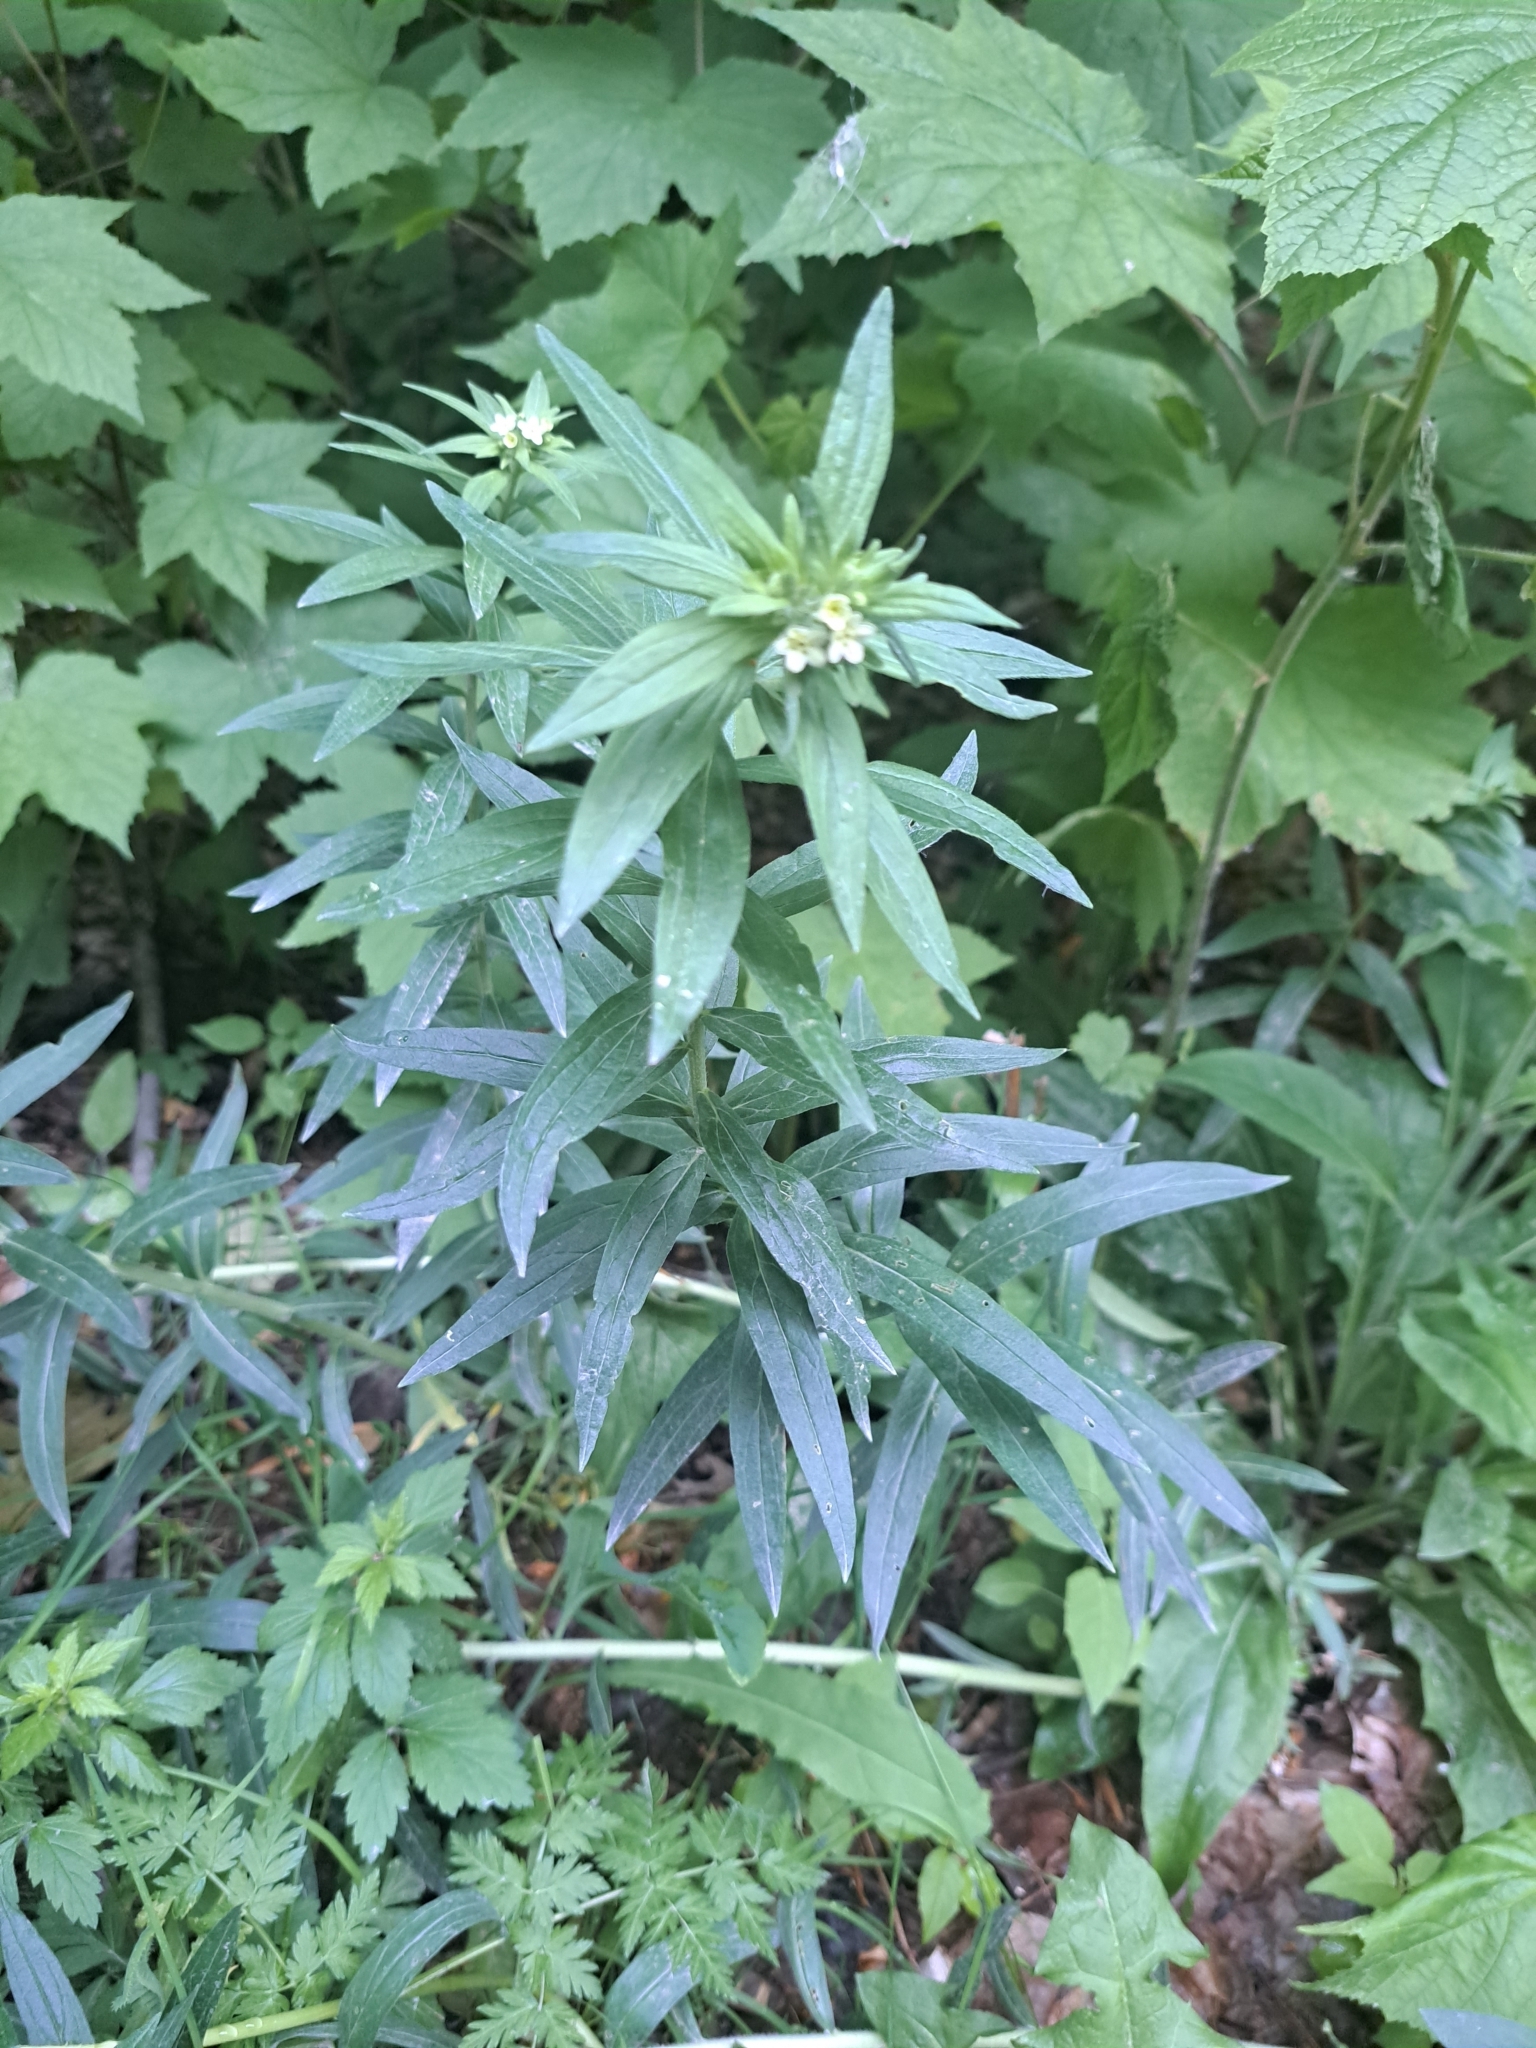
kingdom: Plantae
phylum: Tracheophyta
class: Magnoliopsida
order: Boraginales
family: Boraginaceae
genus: Lithospermum
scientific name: Lithospermum officinale
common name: Common gromwell
